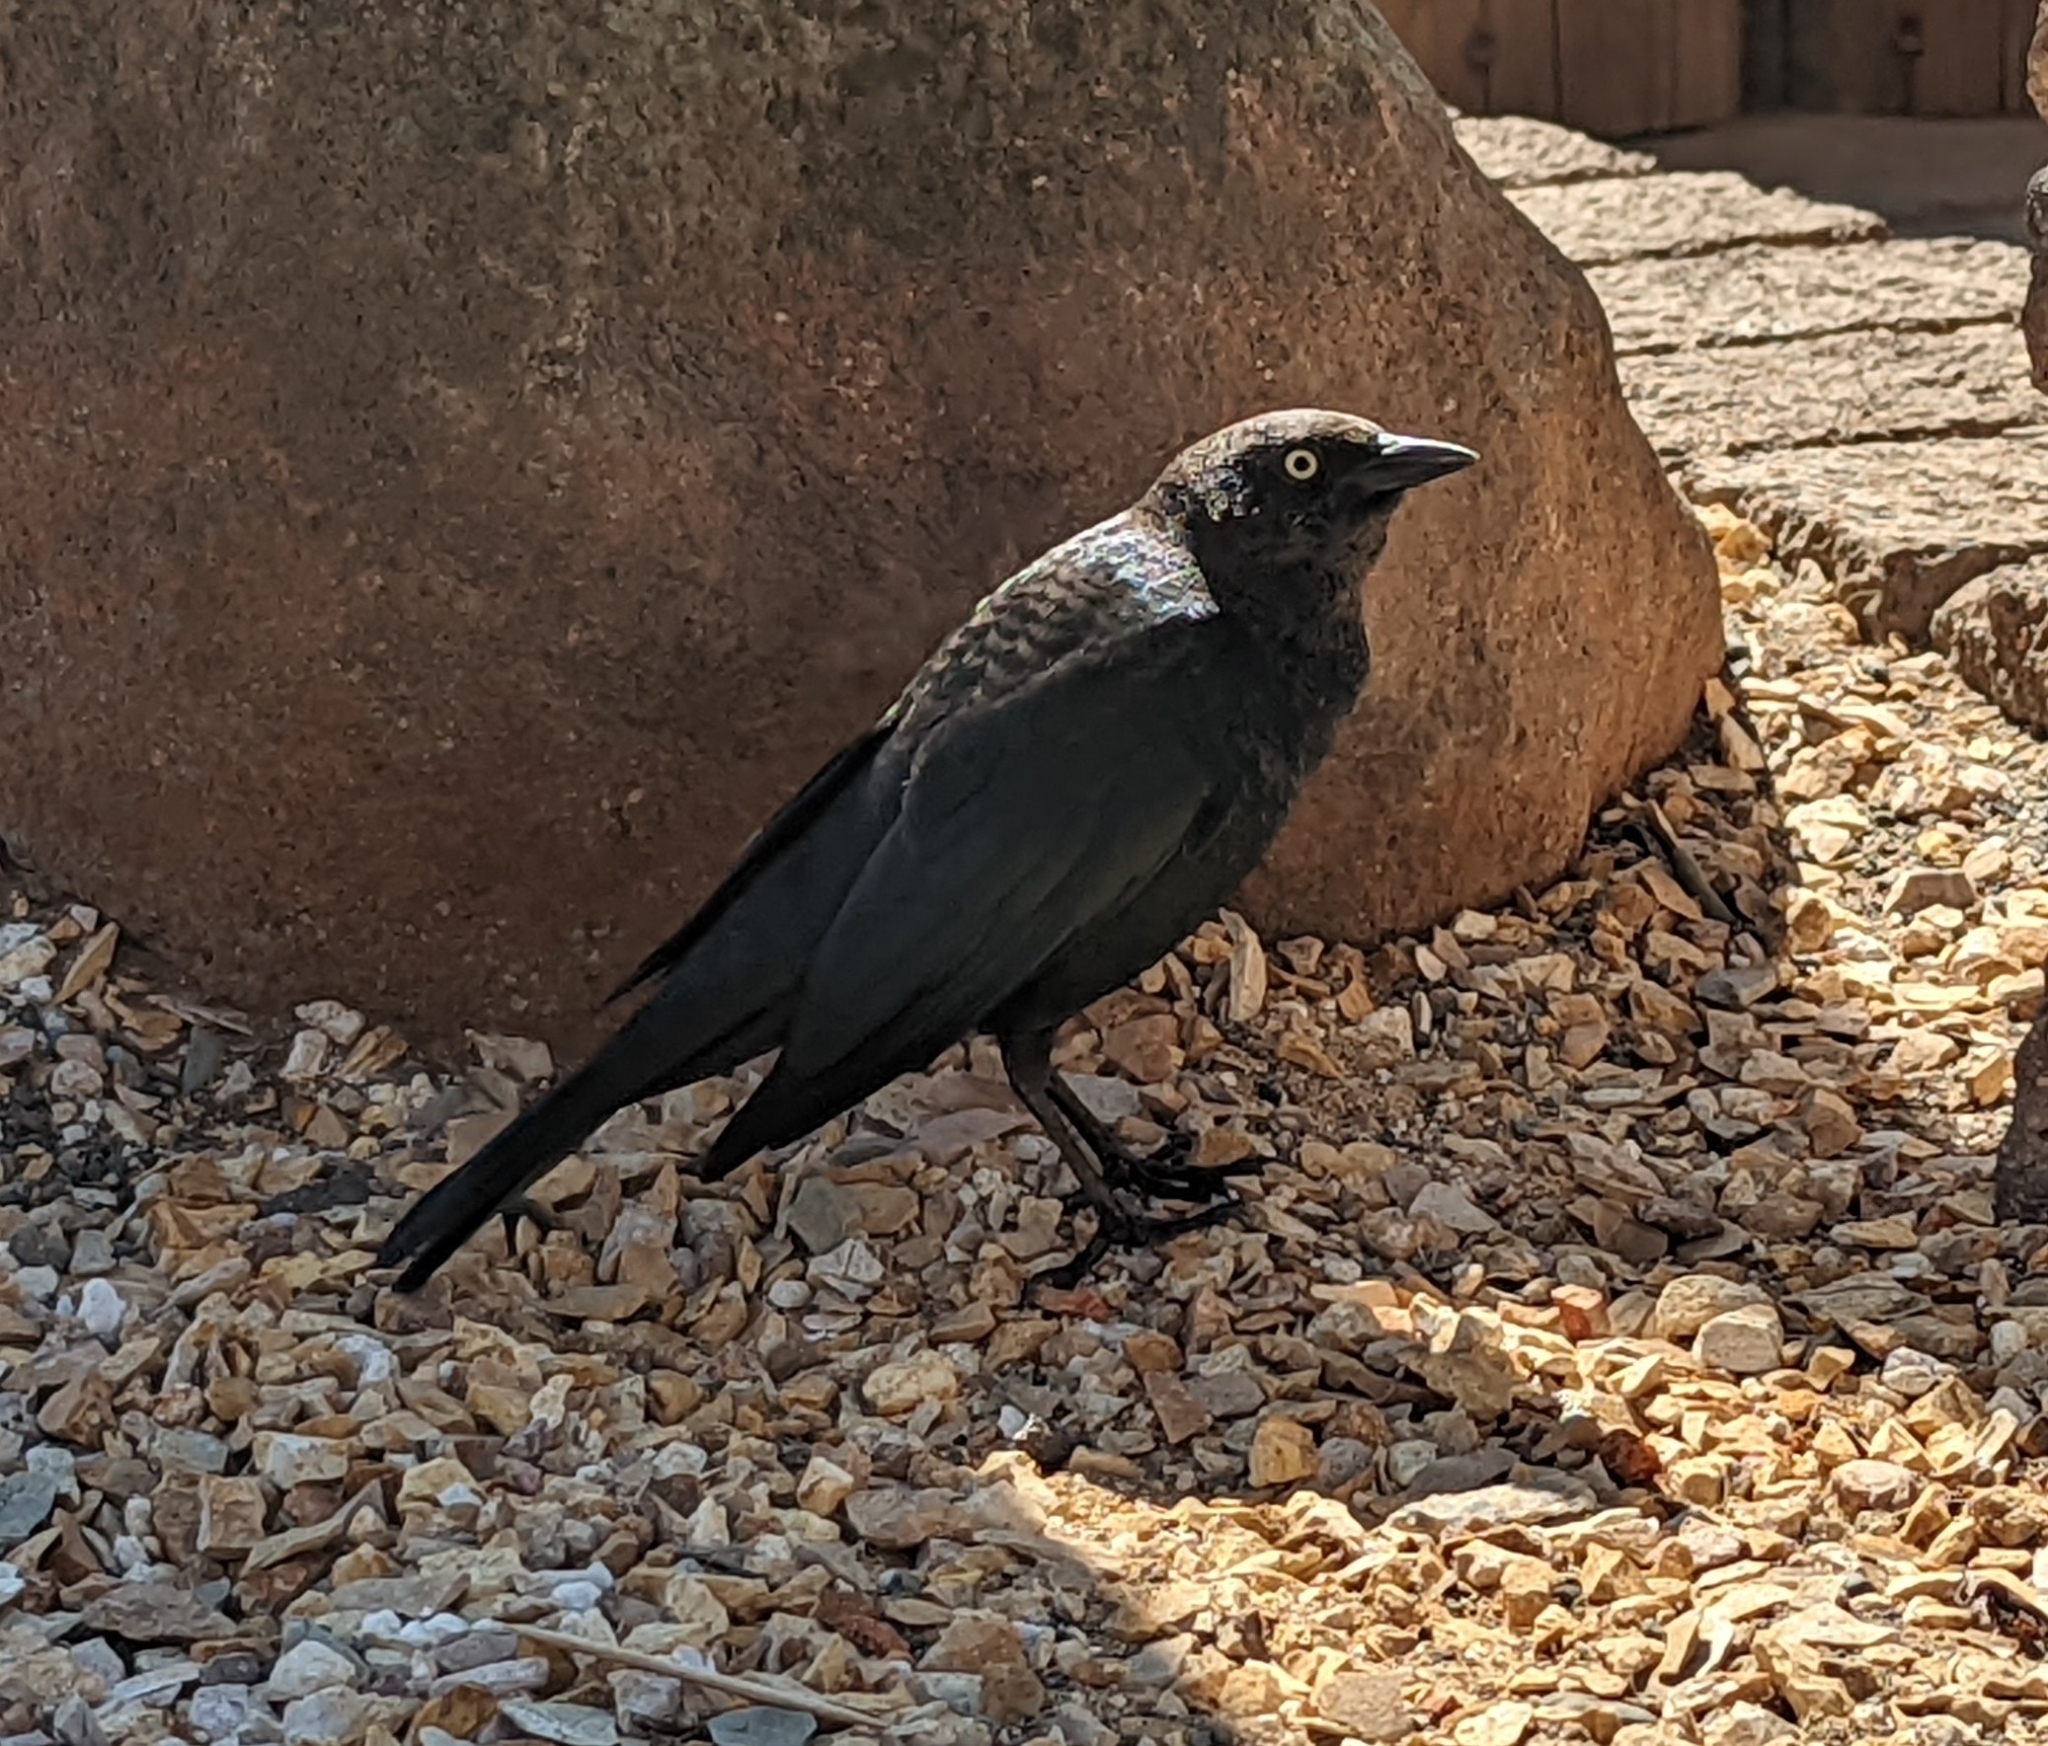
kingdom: Animalia
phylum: Chordata
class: Aves
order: Passeriformes
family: Icteridae
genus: Euphagus
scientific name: Euphagus cyanocephalus
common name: Brewer's blackbird
